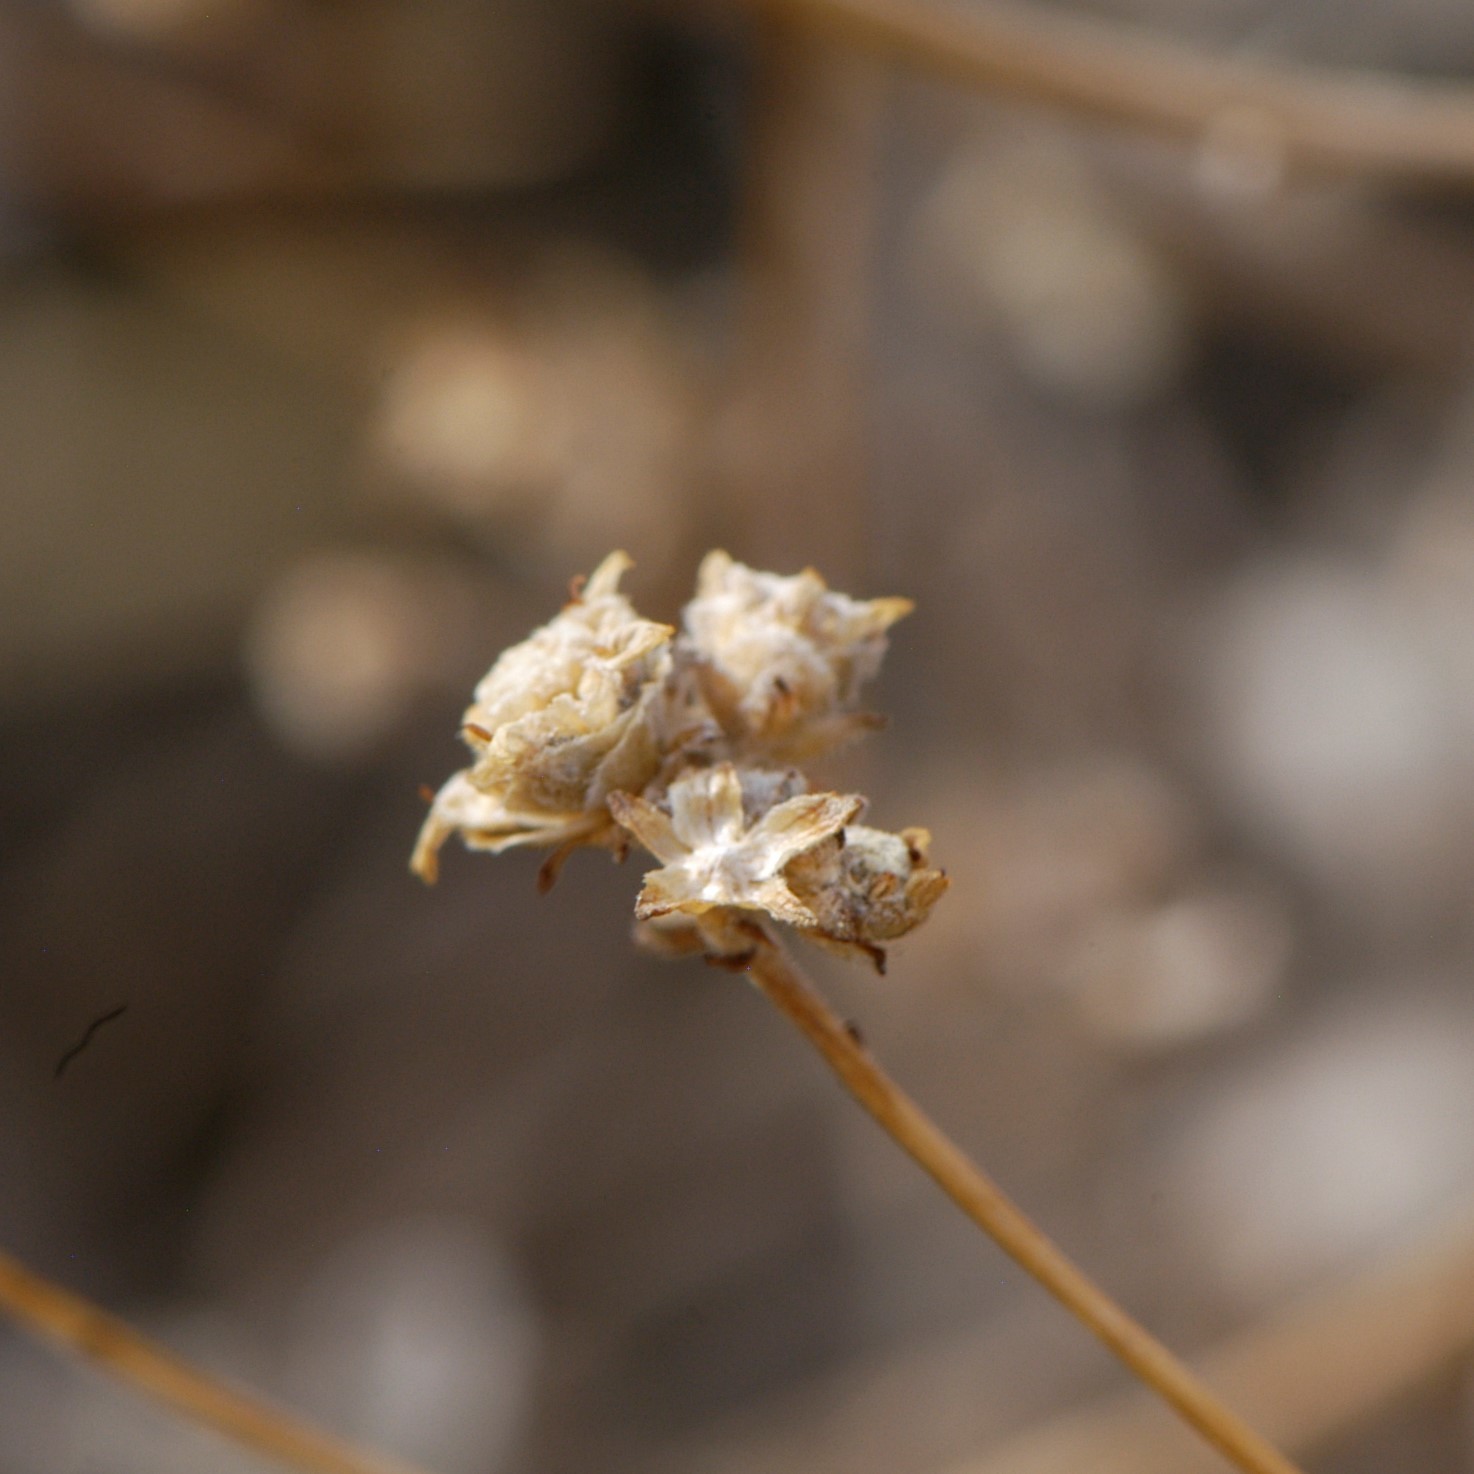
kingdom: Plantae
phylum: Tracheophyta
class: Magnoliopsida
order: Asterales
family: Asteraceae
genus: Parthenium
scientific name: Parthenium incanum
